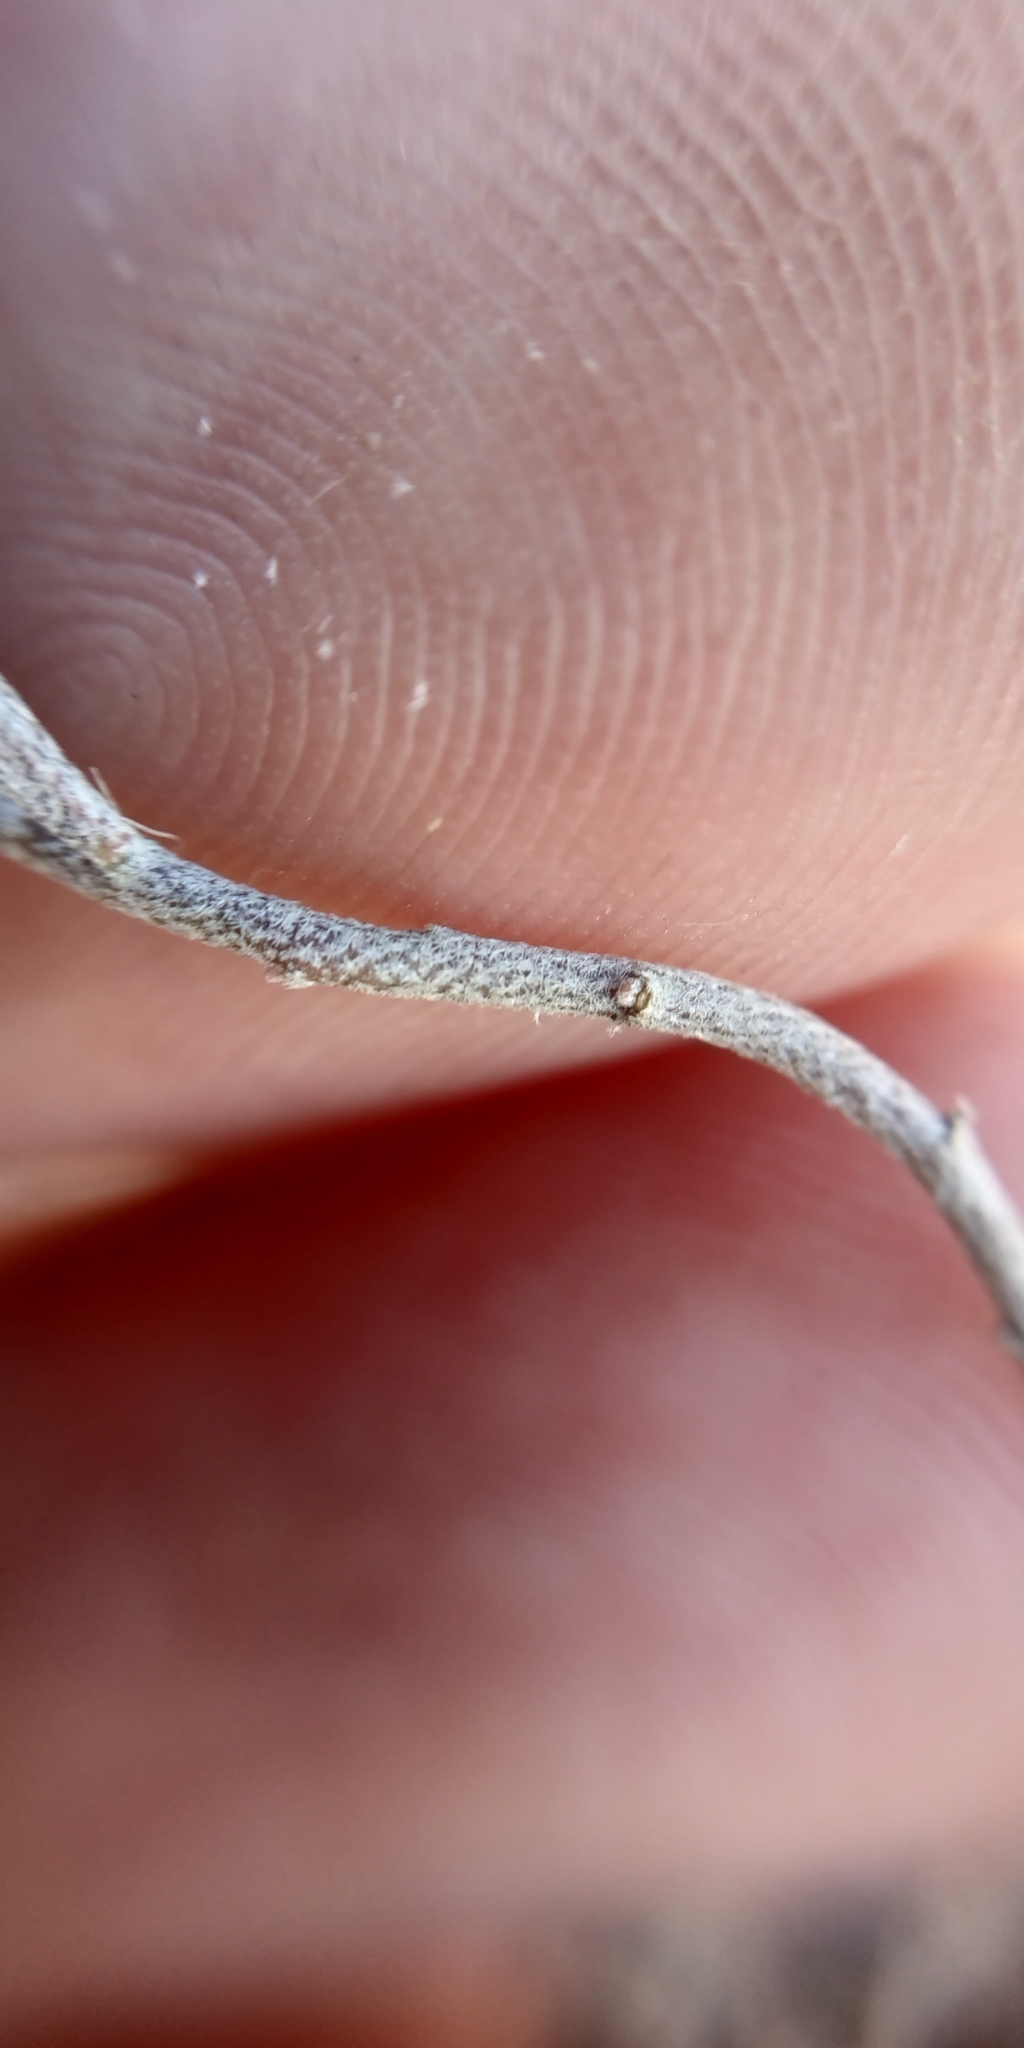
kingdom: Plantae
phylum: Tracheophyta
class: Magnoliopsida
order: Brassicales
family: Brassicaceae
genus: Alyssum
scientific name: Alyssum turkestanicum
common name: Desert alyssum
